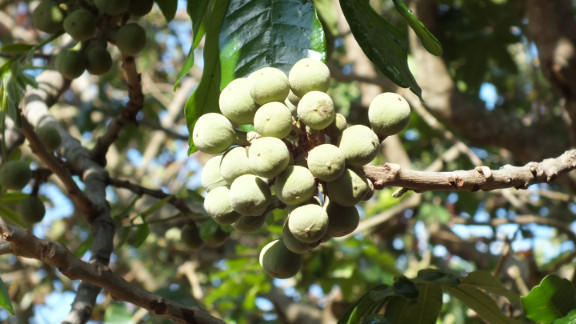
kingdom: Plantae
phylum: Tracheophyta
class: Magnoliopsida
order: Sapindales
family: Meliaceae
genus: Trichilia
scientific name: Trichilia emetica
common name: Christmas-bells
